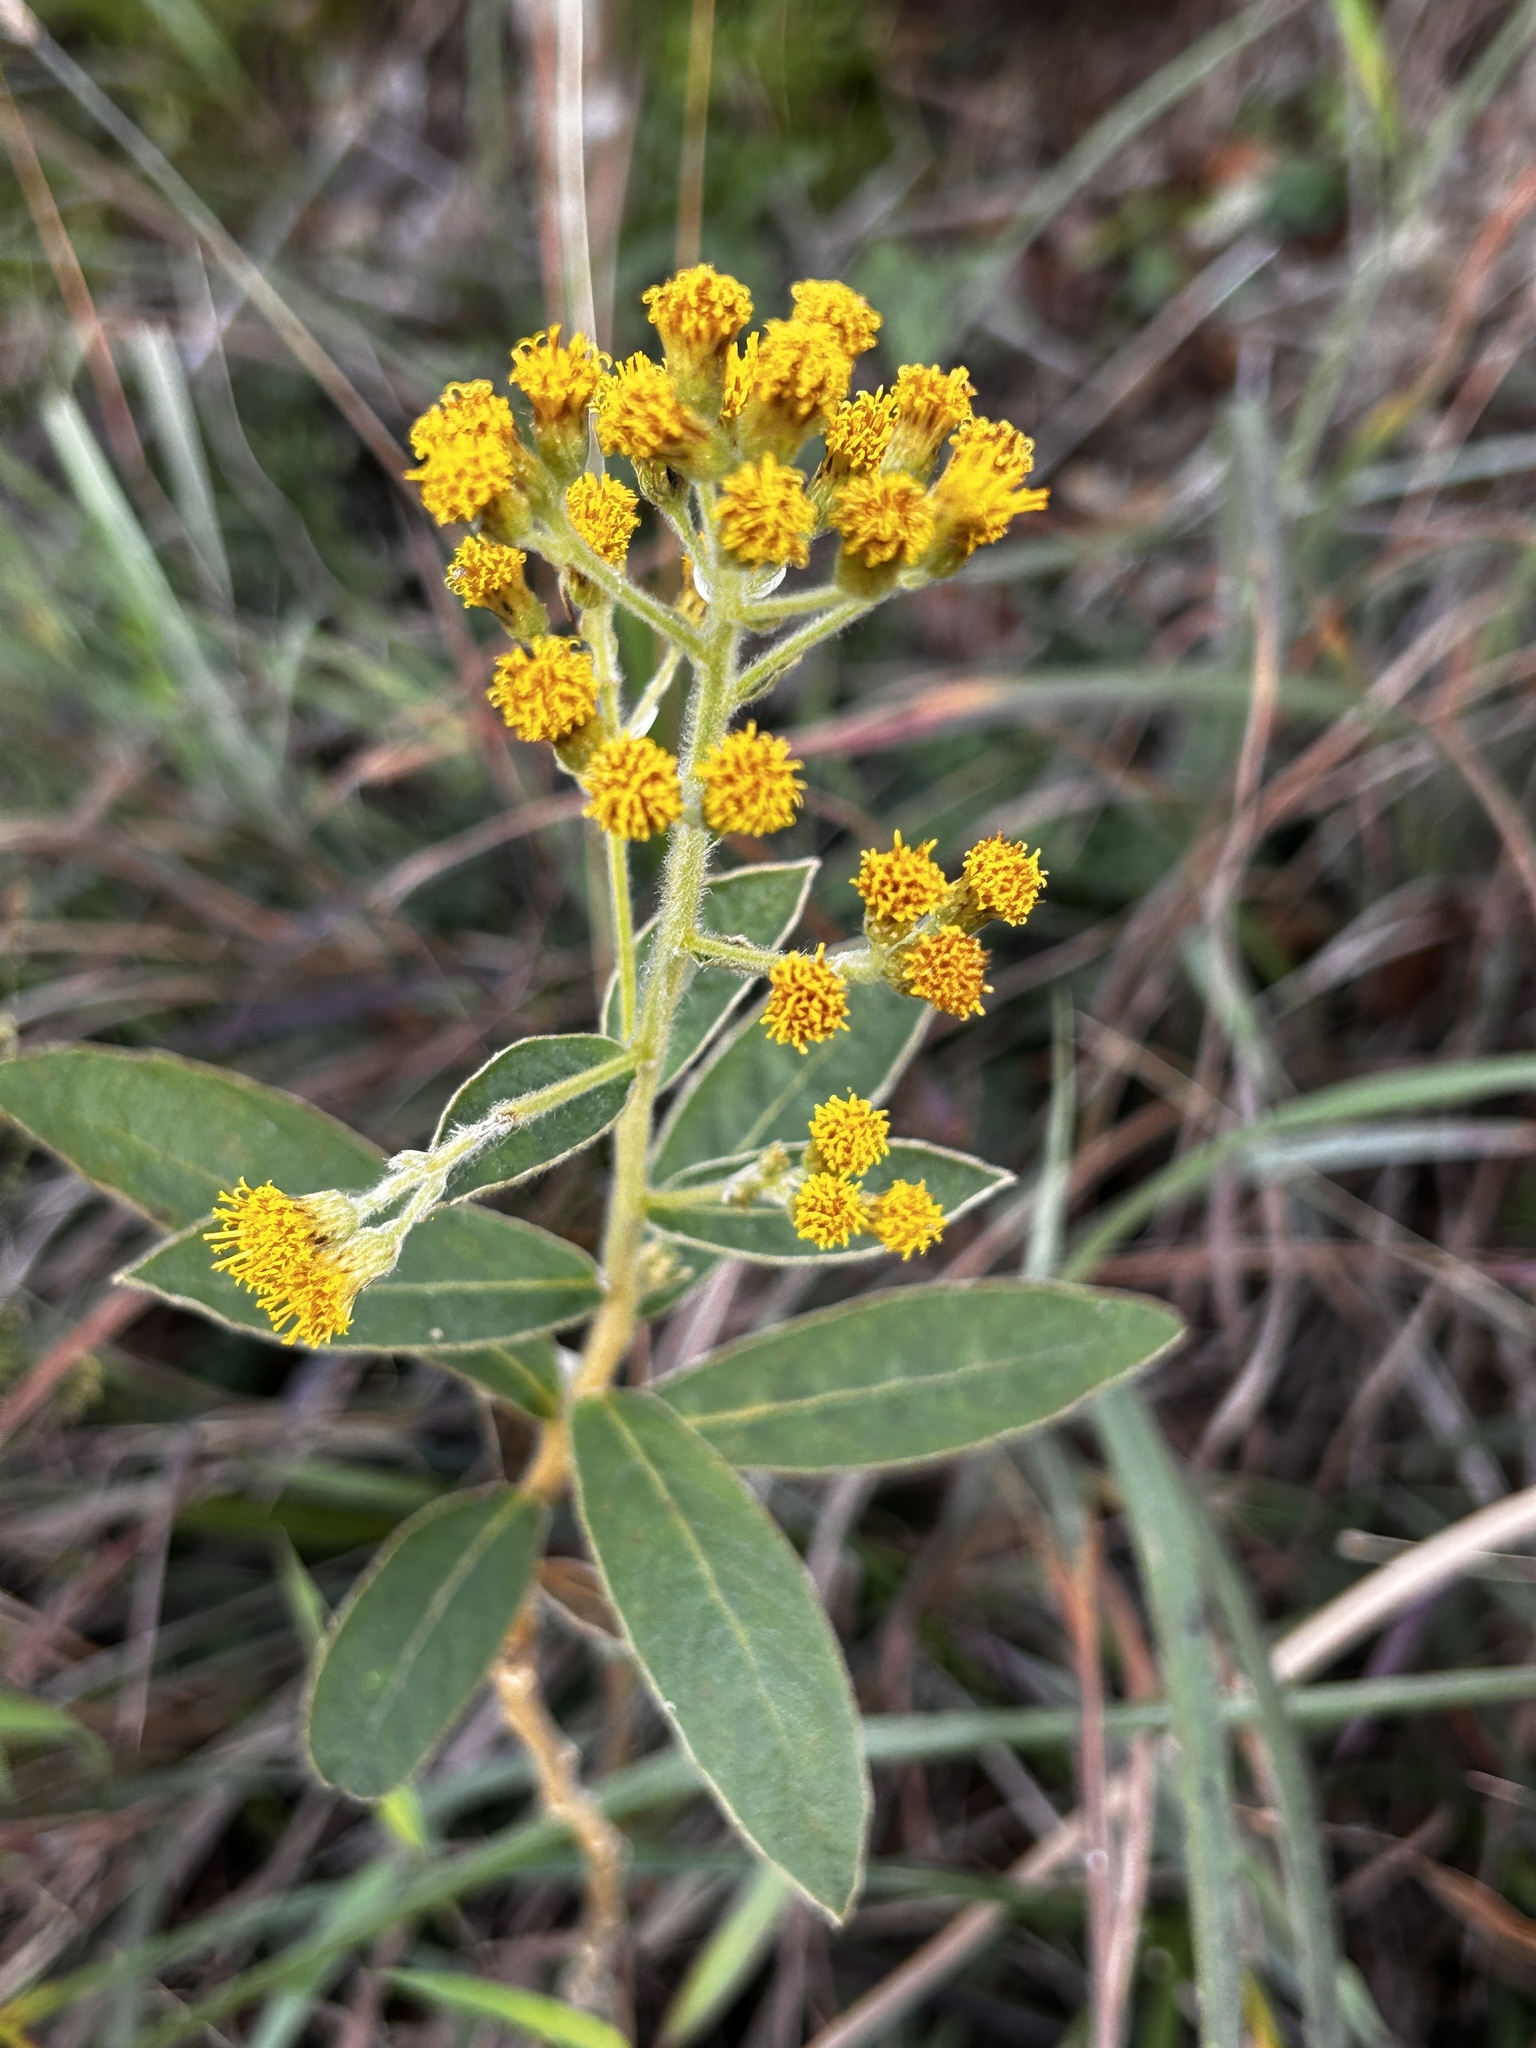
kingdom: Plantae
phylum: Tracheophyta
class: Magnoliopsida
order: Asterales
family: Asteraceae
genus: Duhaldea
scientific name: Duhaldea cappa
